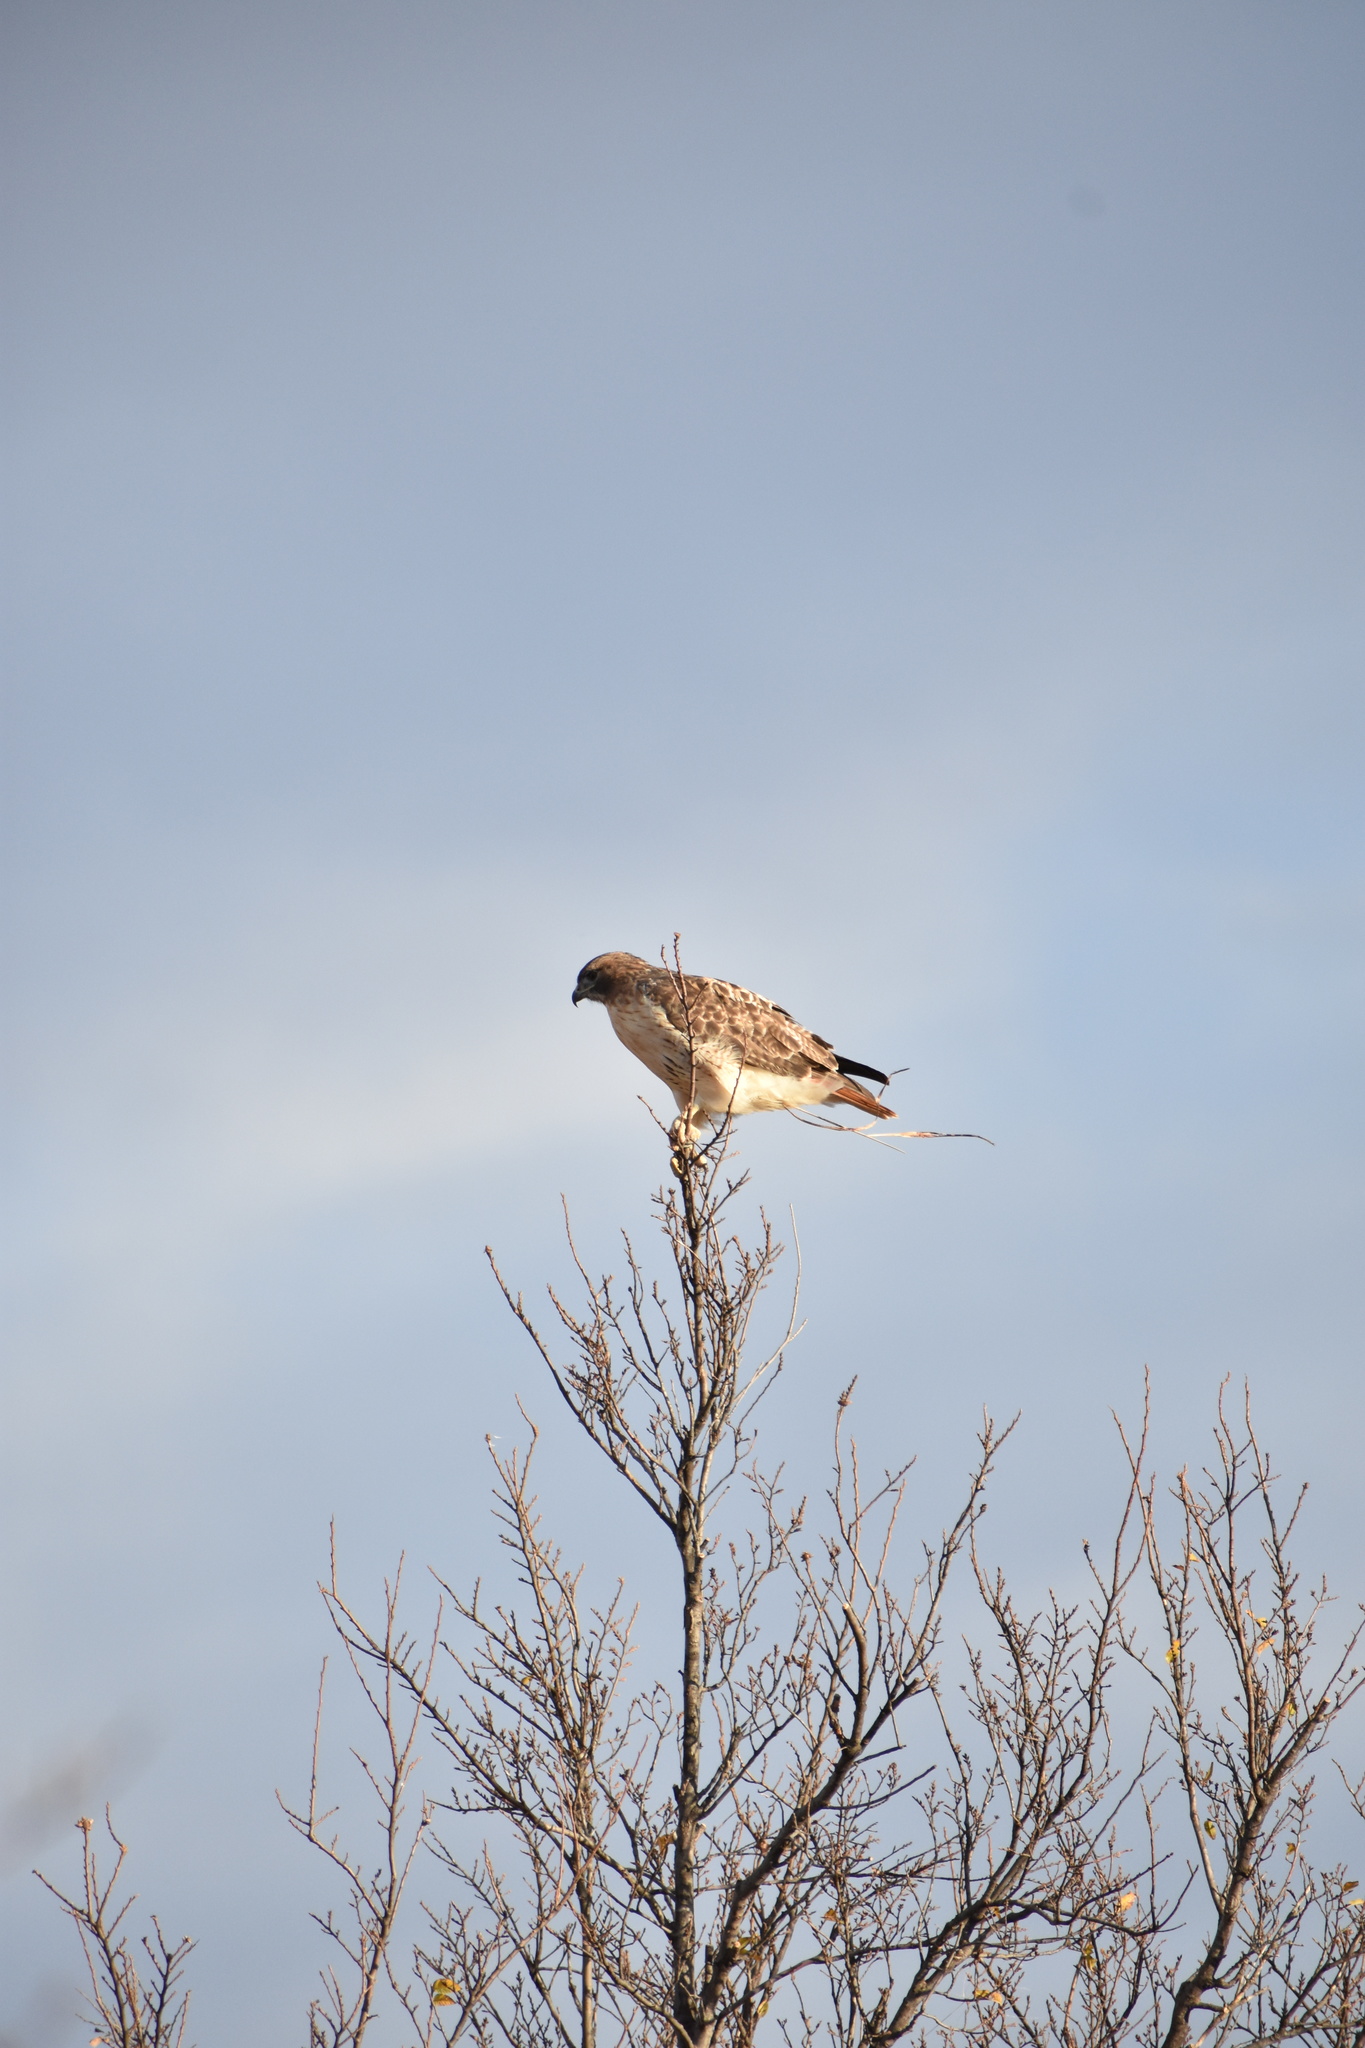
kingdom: Animalia
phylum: Chordata
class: Aves
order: Accipitriformes
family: Accipitridae
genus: Buteo
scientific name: Buteo jamaicensis
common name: Red-tailed hawk
